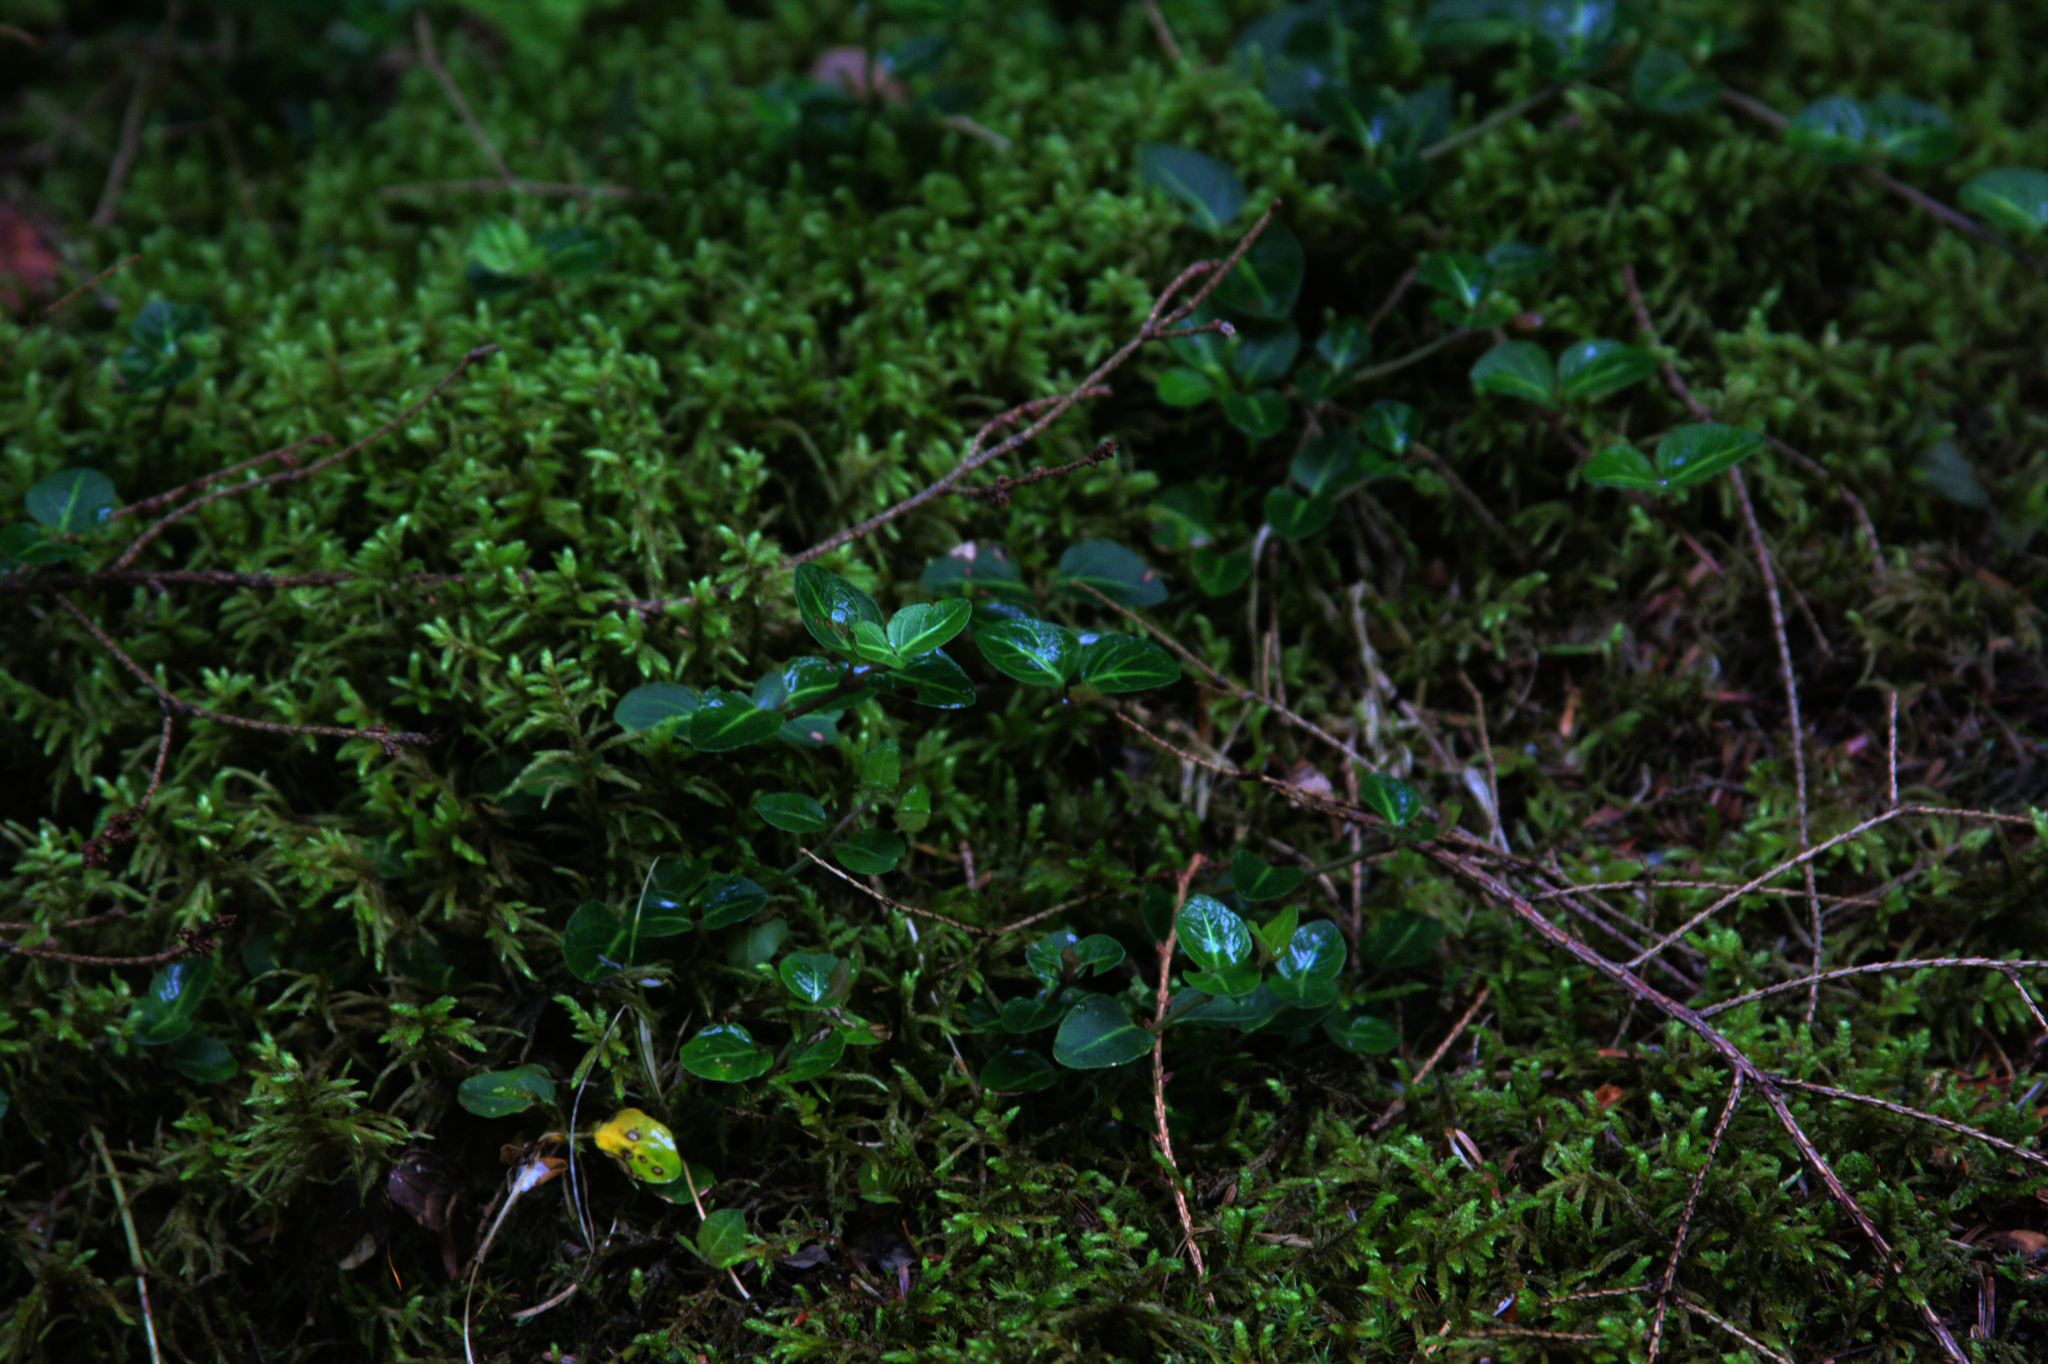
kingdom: Plantae
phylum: Tracheophyta
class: Magnoliopsida
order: Gentianales
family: Rubiaceae
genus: Mitchella
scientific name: Mitchella repens
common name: Partridge-berry
